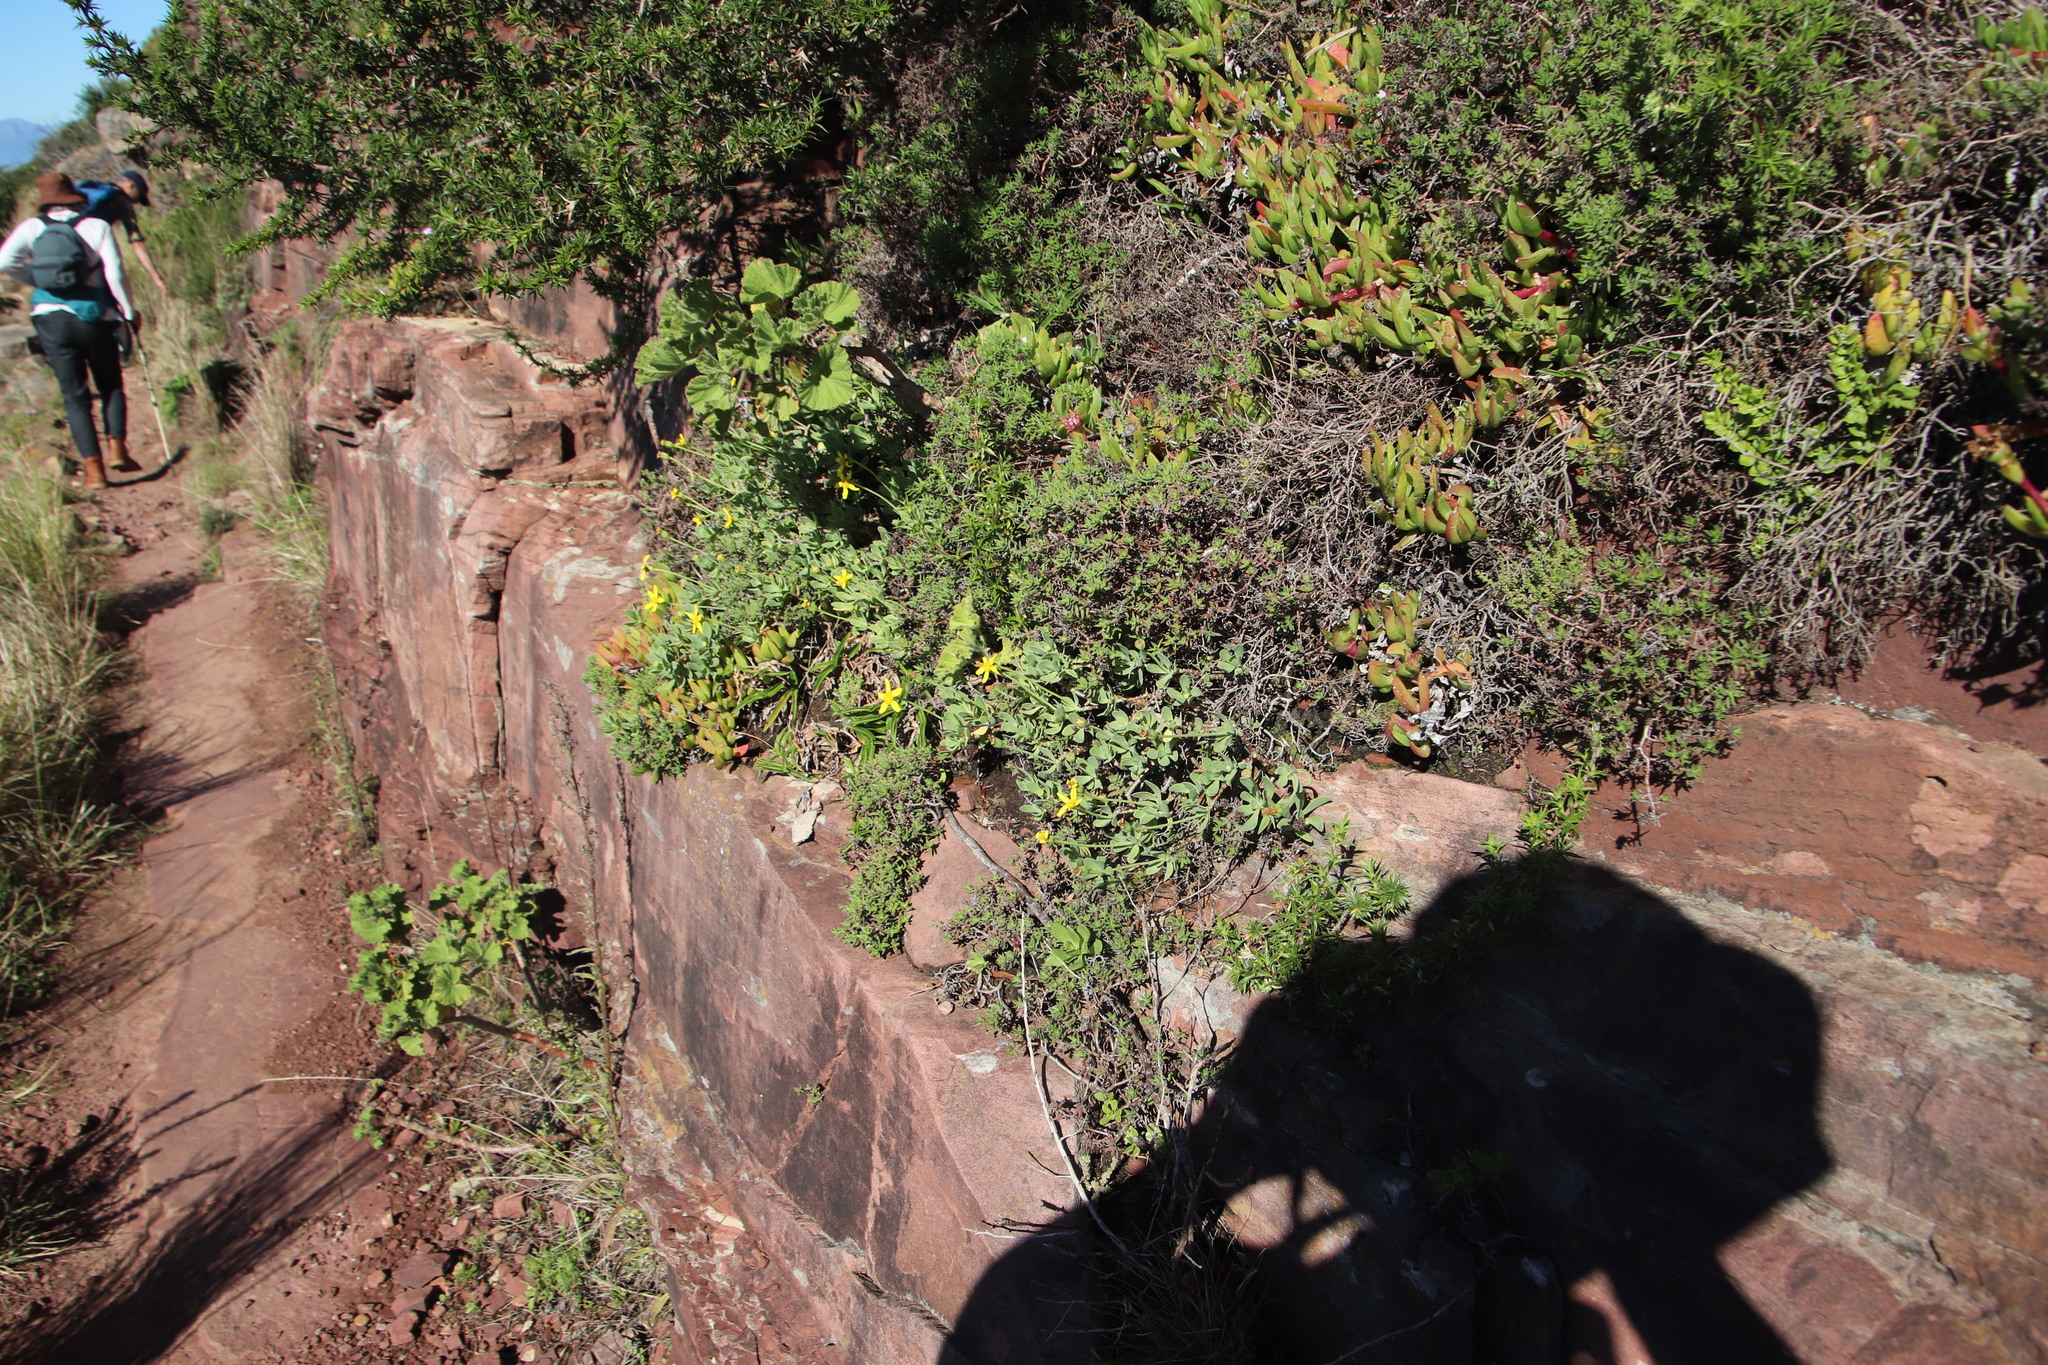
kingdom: Plantae
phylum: Tracheophyta
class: Magnoliopsida
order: Asterales
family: Asteraceae
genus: Othonna
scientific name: Othonna arborescens
